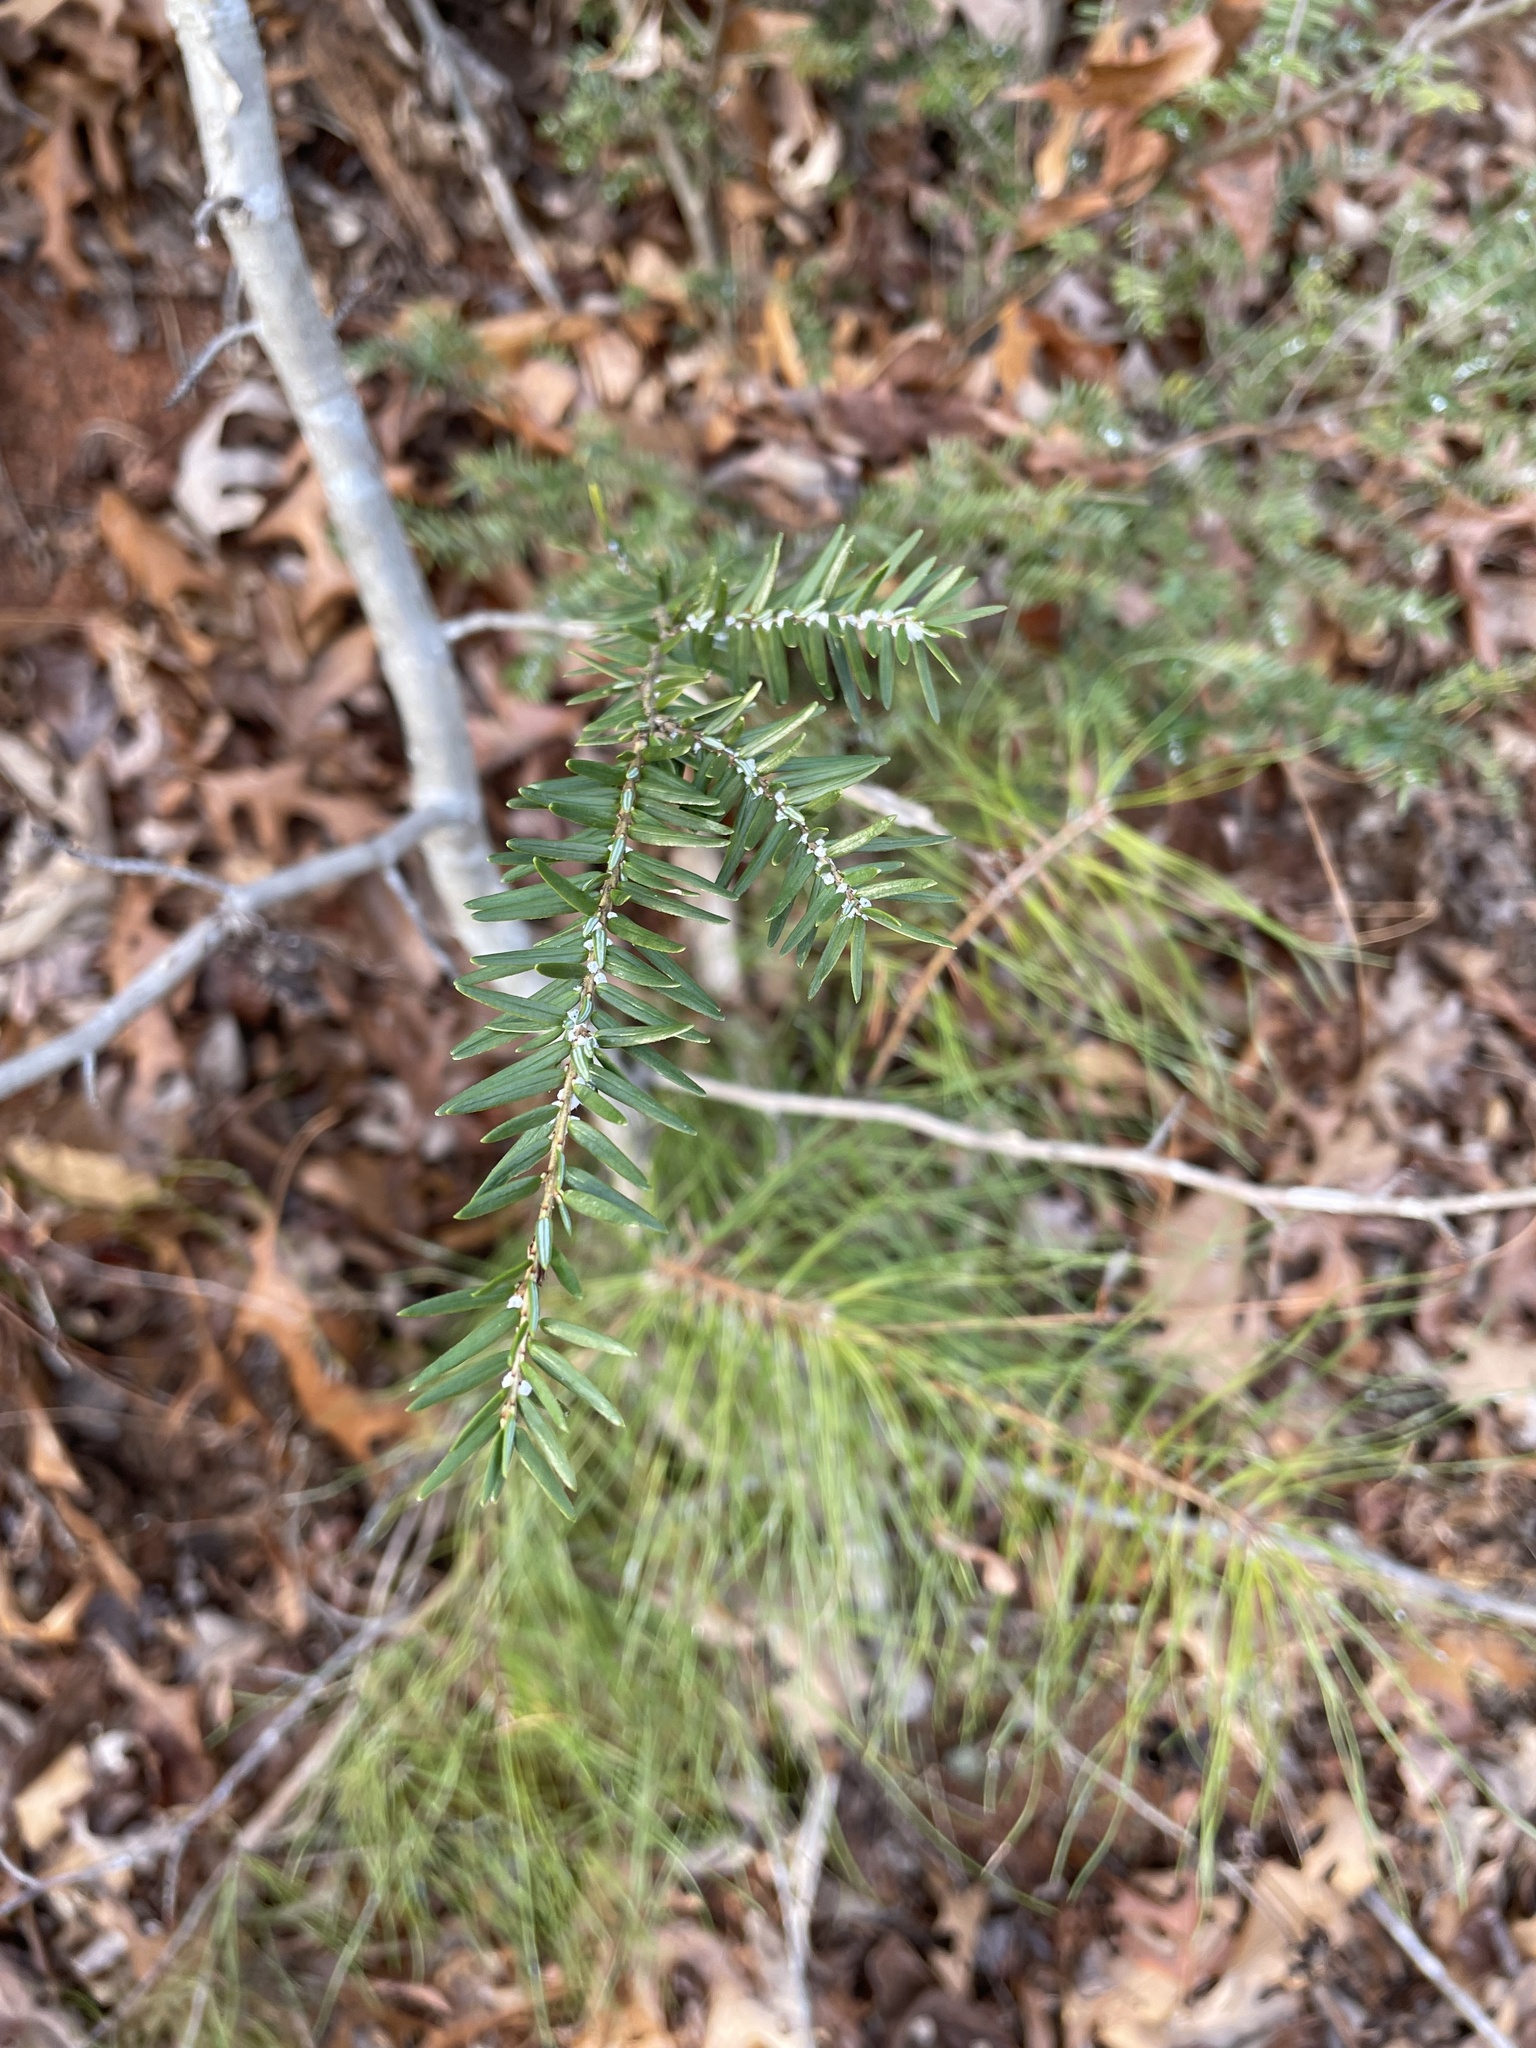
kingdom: Plantae
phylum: Tracheophyta
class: Pinopsida
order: Pinales
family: Pinaceae
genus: Tsuga
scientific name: Tsuga canadensis
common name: Eastern hemlock
